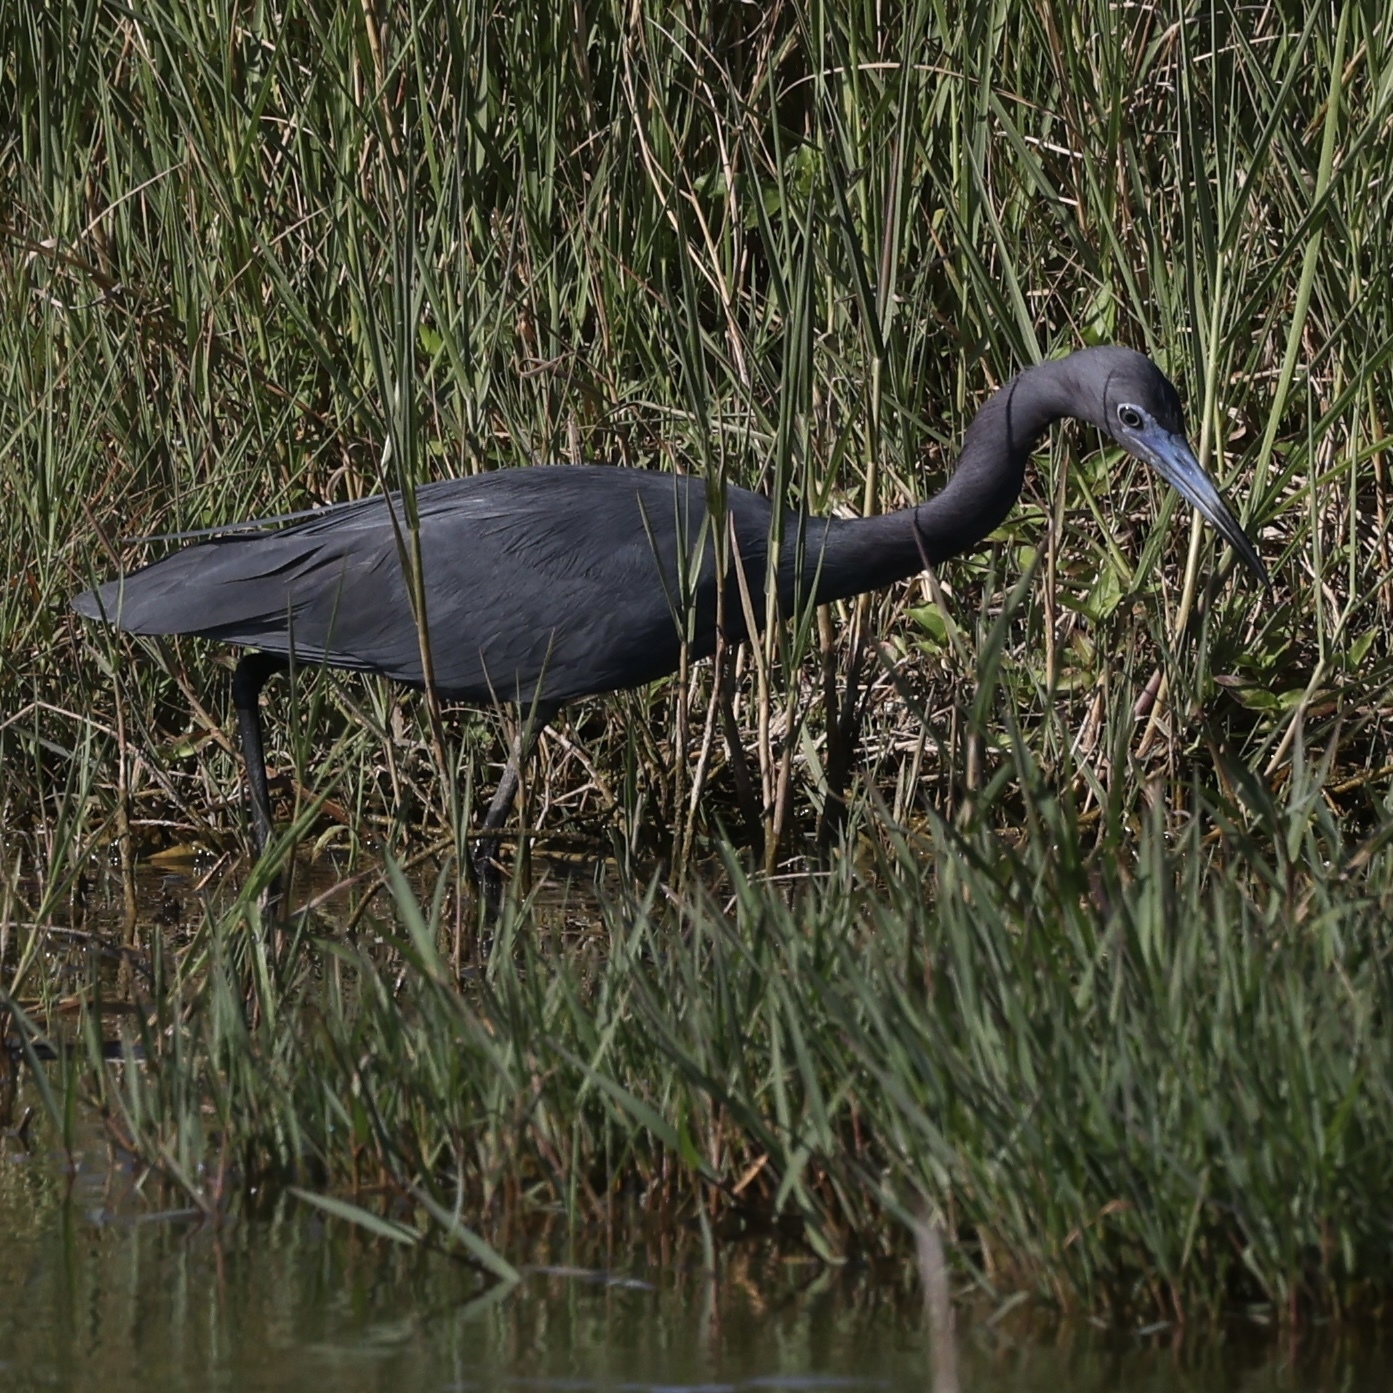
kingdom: Animalia
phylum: Chordata
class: Aves
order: Pelecaniformes
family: Ardeidae
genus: Egretta
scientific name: Egretta caerulea
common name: Little blue heron
